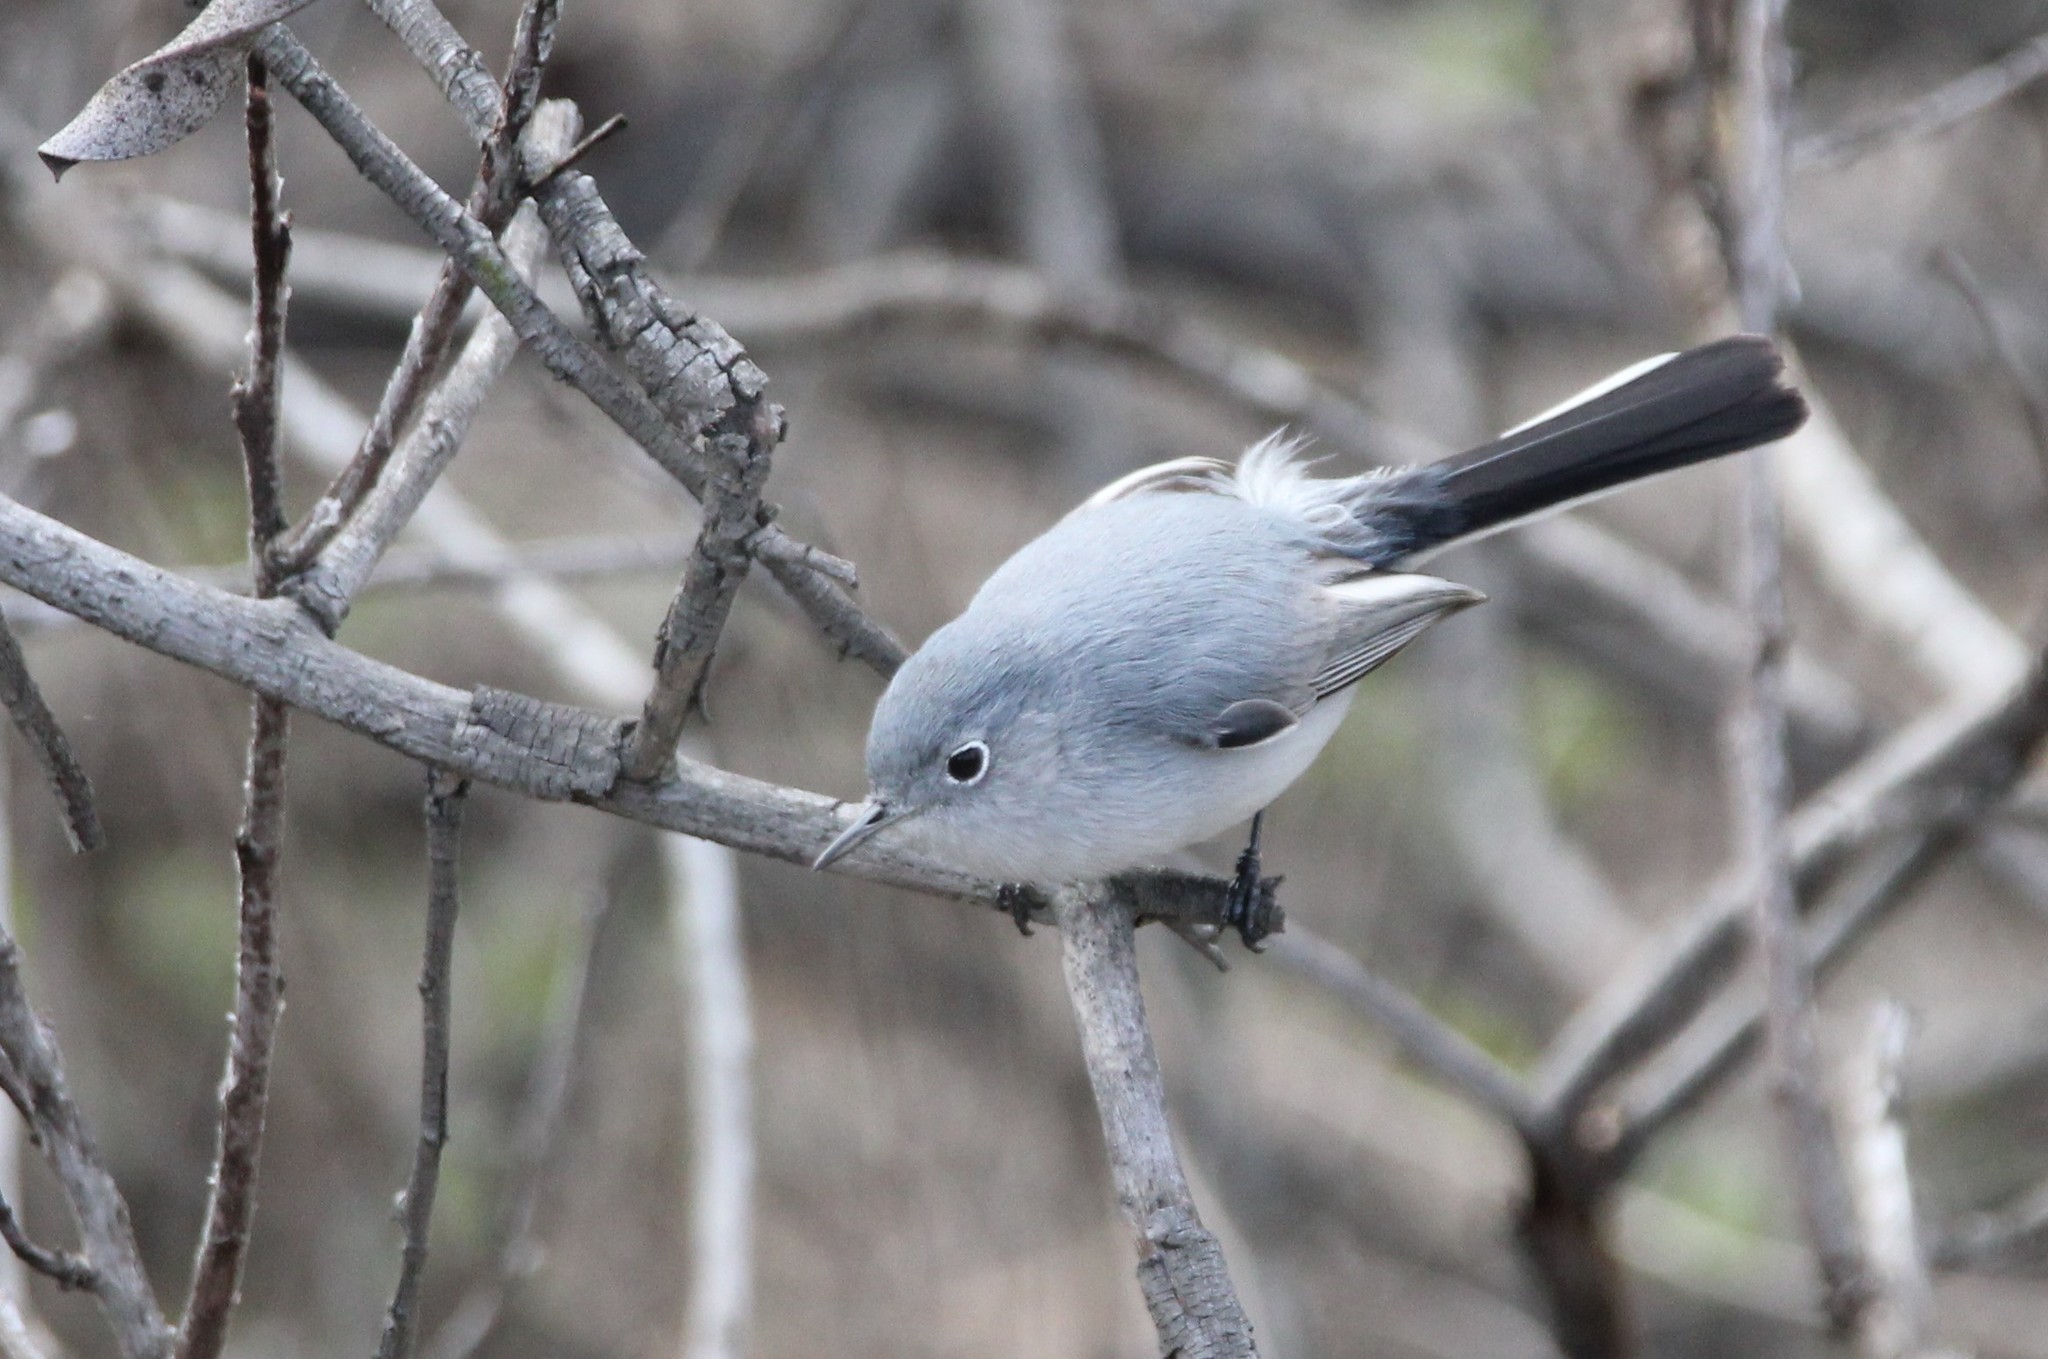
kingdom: Animalia
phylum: Chordata
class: Aves
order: Passeriformes
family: Polioptilidae
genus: Polioptila
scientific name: Polioptila caerulea
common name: Blue-gray gnatcatcher
